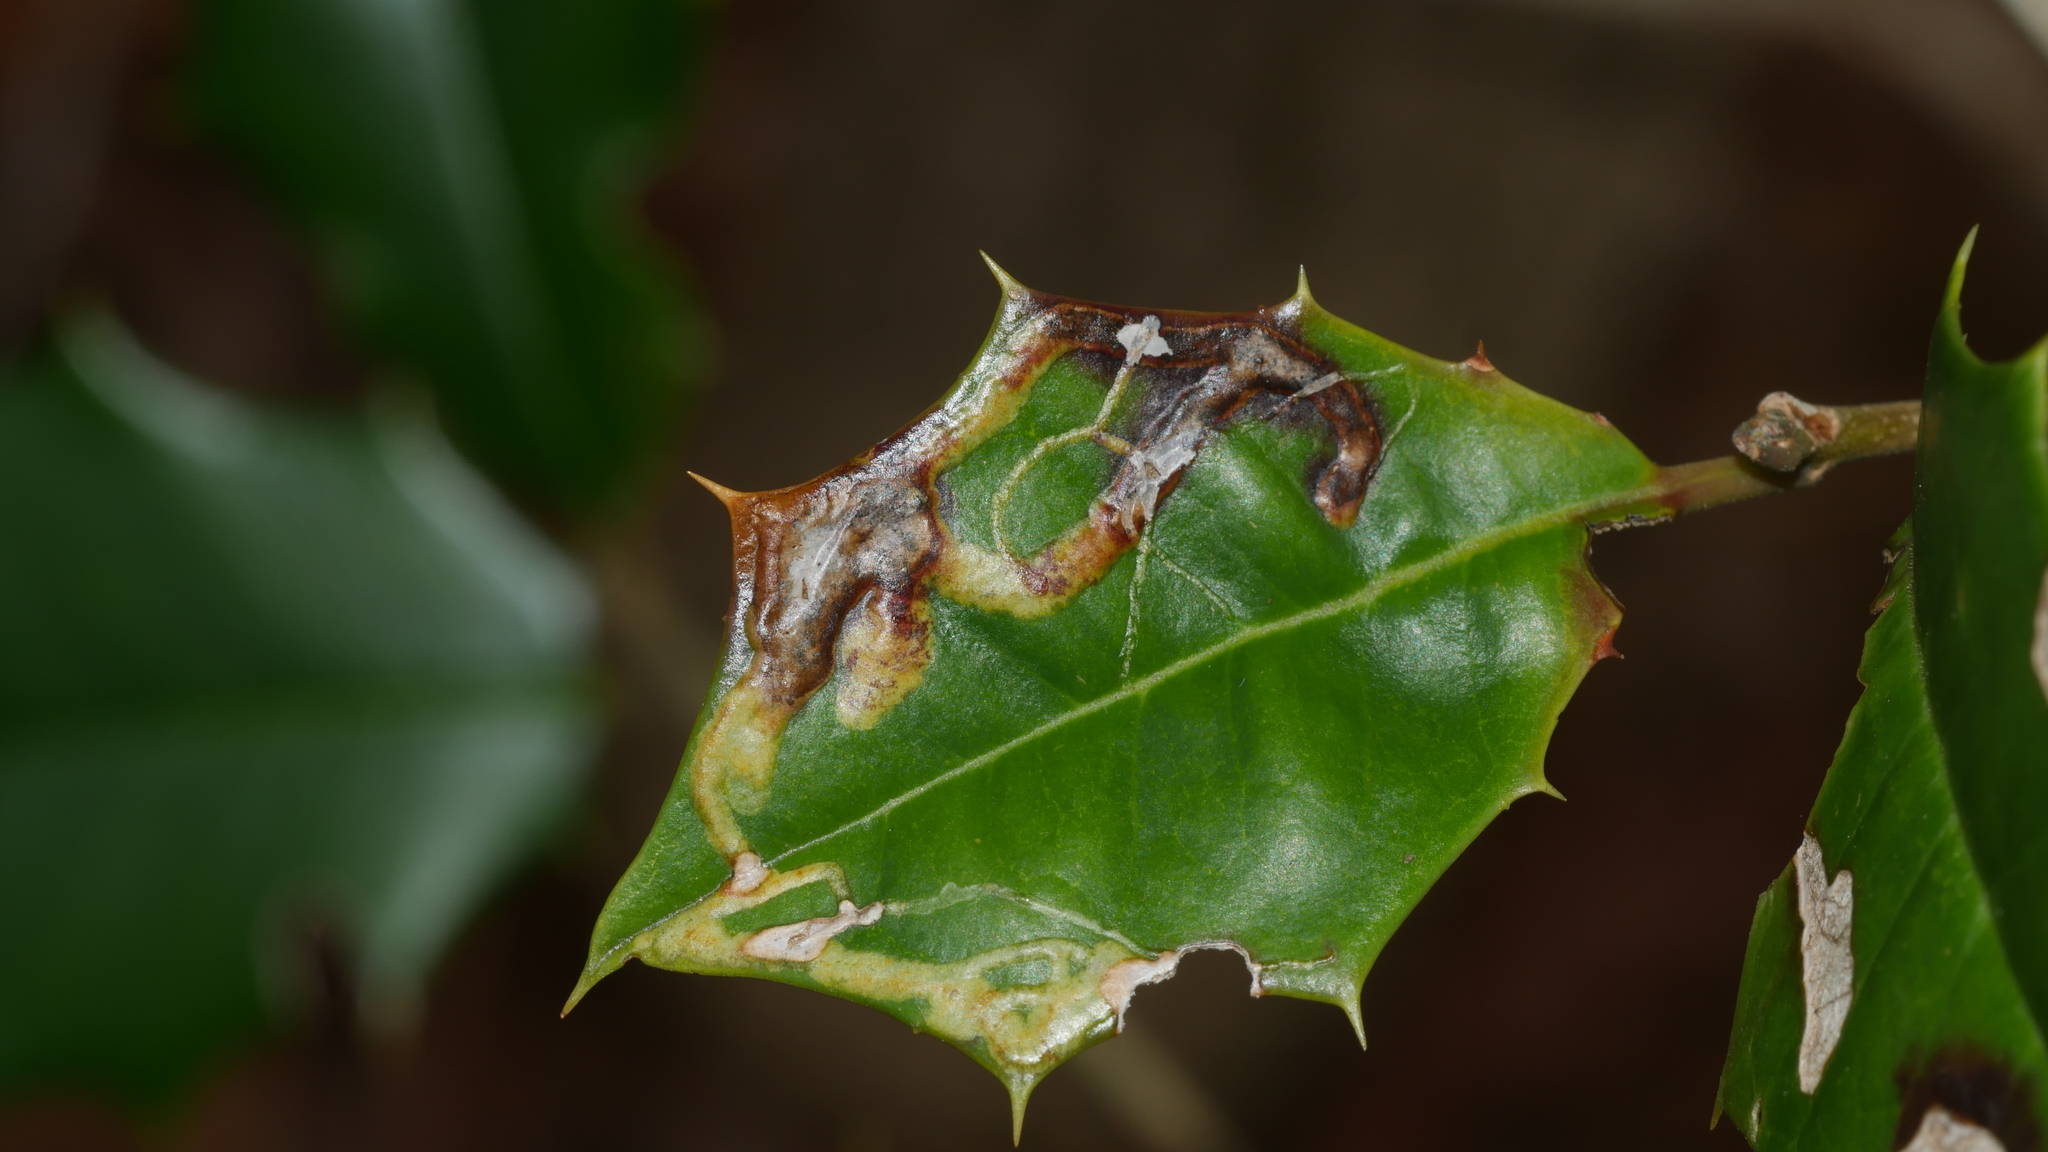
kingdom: Animalia
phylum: Arthropoda
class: Insecta
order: Diptera
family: Agromyzidae
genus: Phytomyza
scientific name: Phytomyza opacae
